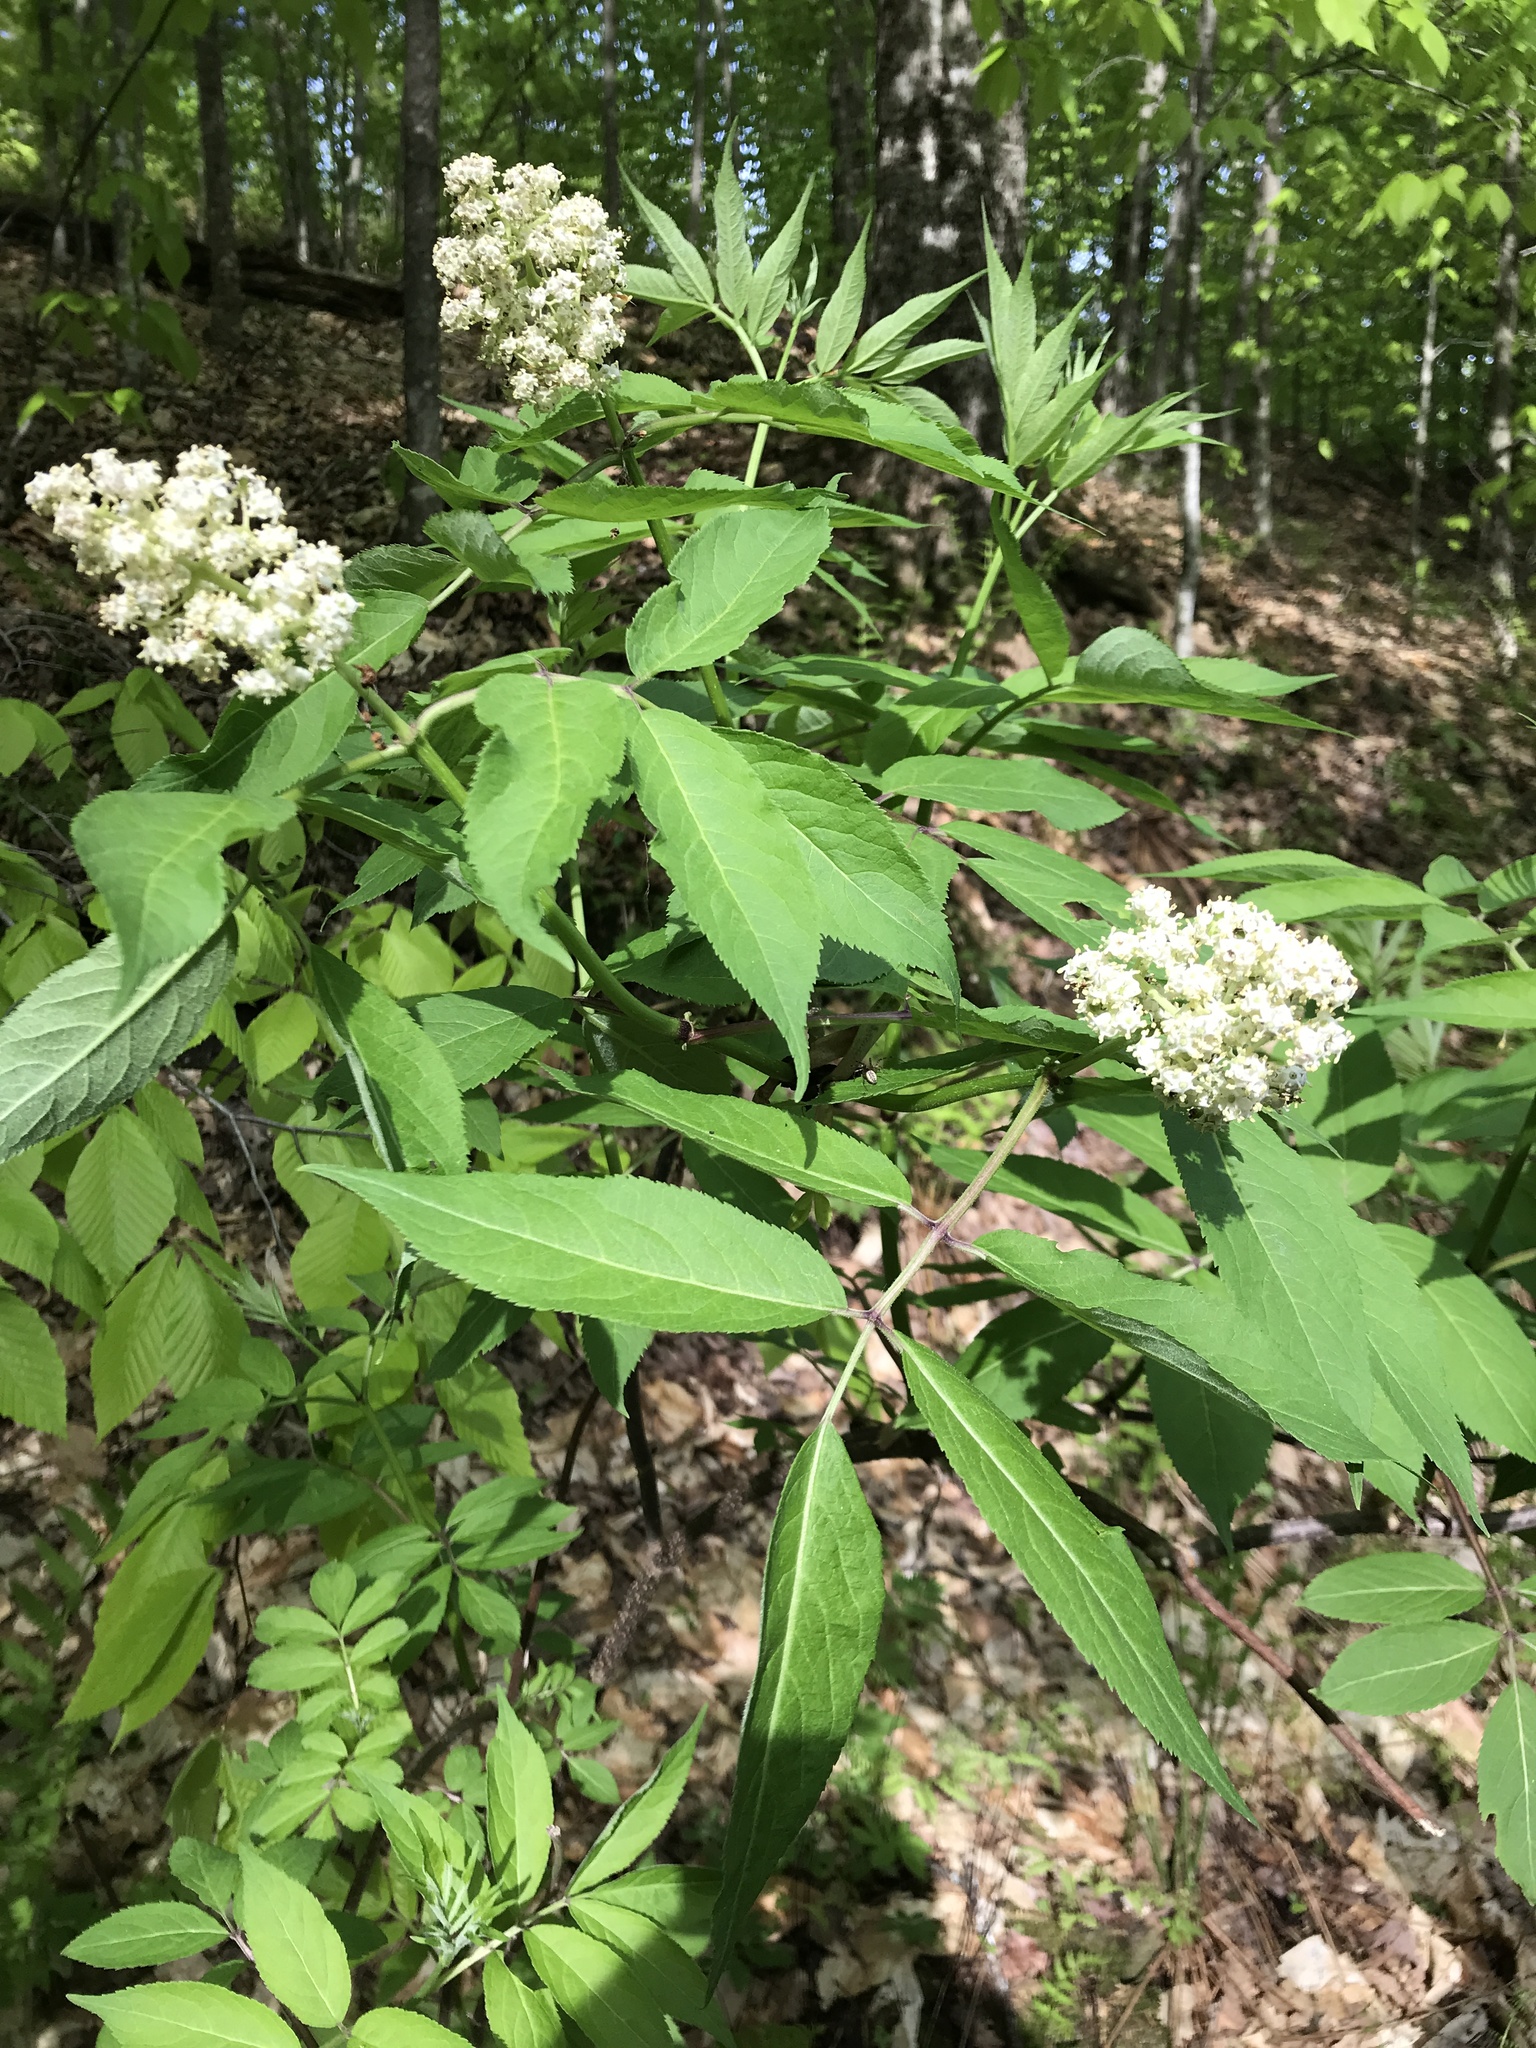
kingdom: Plantae
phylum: Tracheophyta
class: Magnoliopsida
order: Dipsacales
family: Viburnaceae
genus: Sambucus
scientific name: Sambucus racemosa
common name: Red-berried elder
